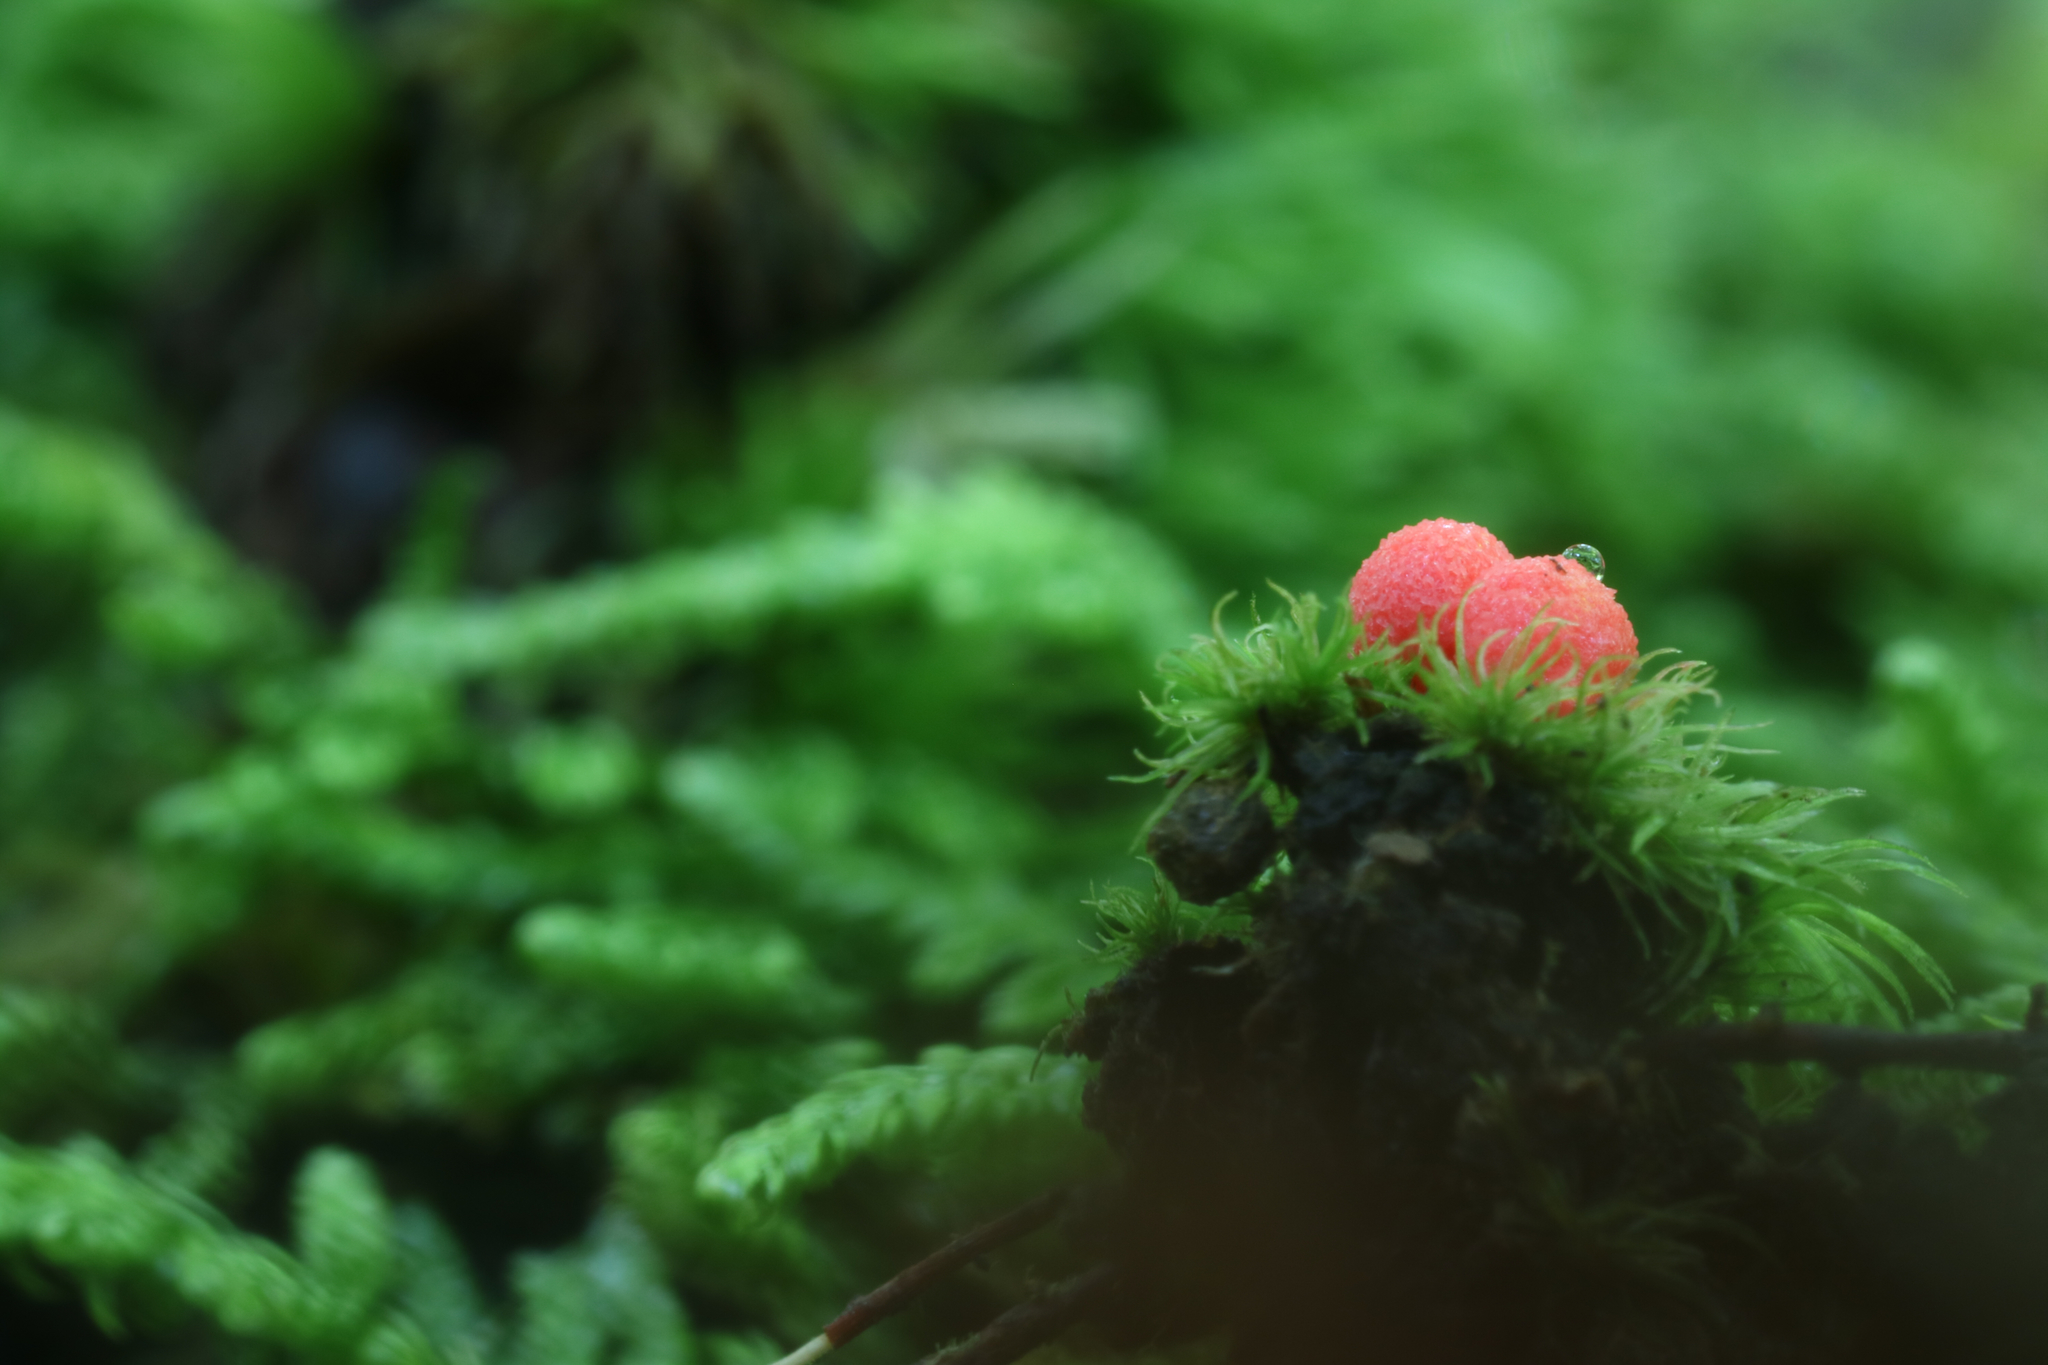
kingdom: Protozoa
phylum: Mycetozoa
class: Myxomycetes
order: Cribrariales
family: Tubiferaceae
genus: Lycogala
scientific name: Lycogala exiguum
